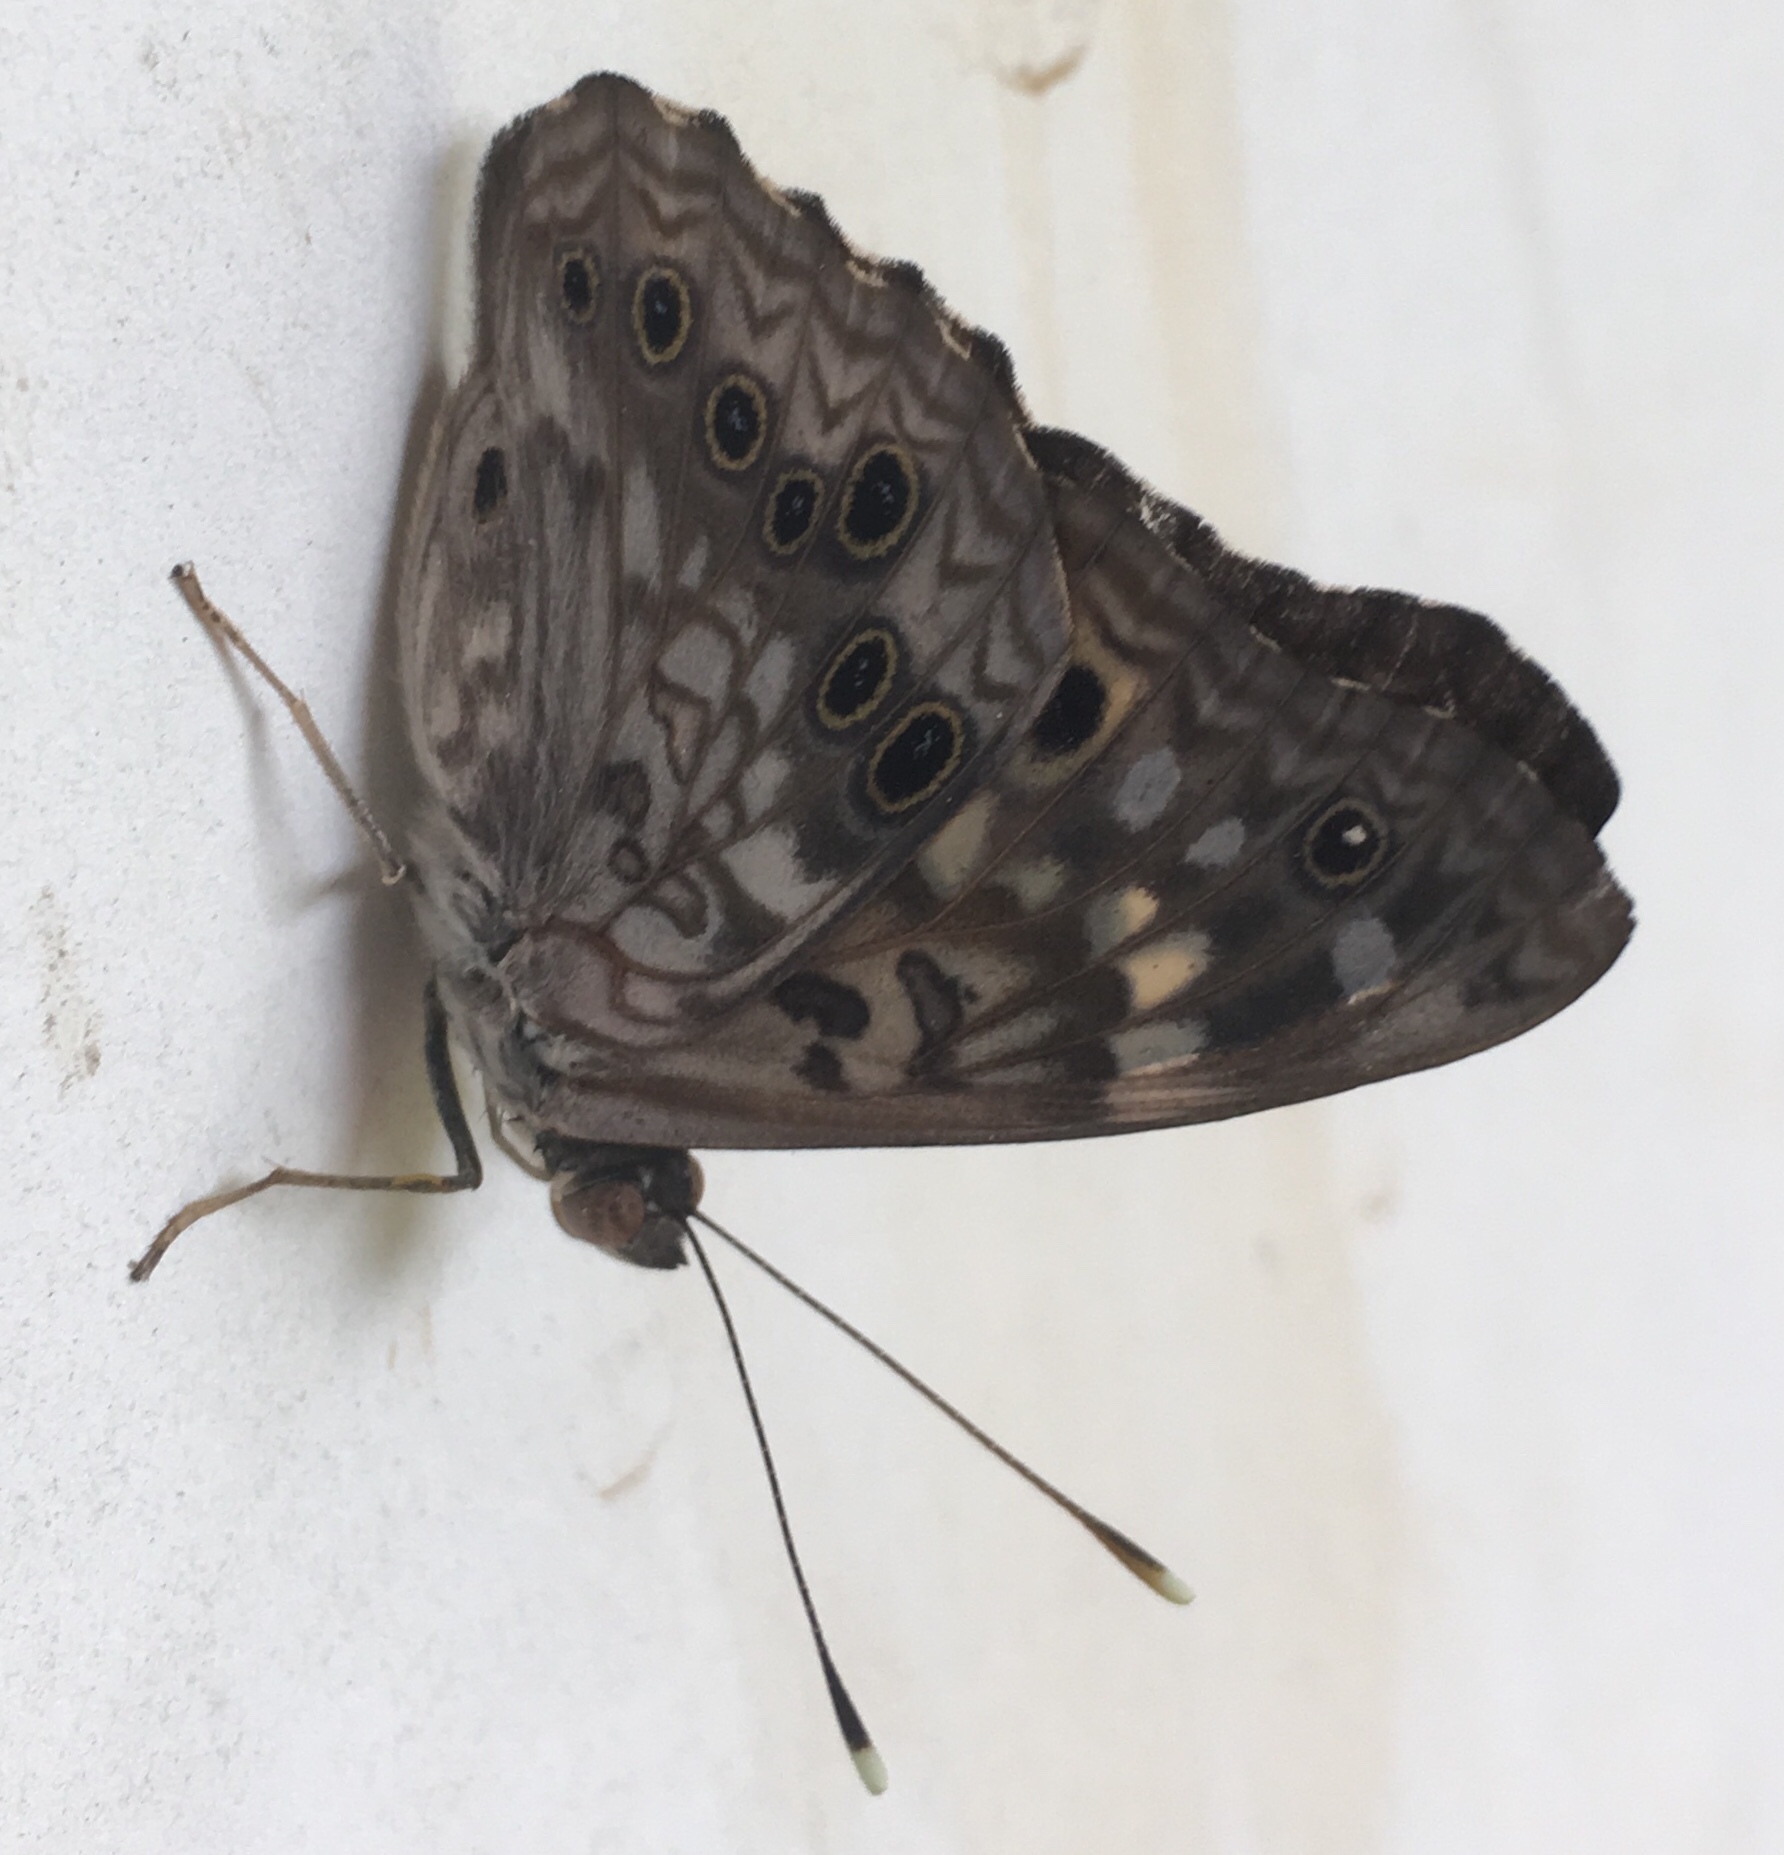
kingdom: Animalia
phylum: Arthropoda
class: Insecta
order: Lepidoptera
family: Nymphalidae
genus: Asterocampa
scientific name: Asterocampa celtis
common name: Hackberry emperor
